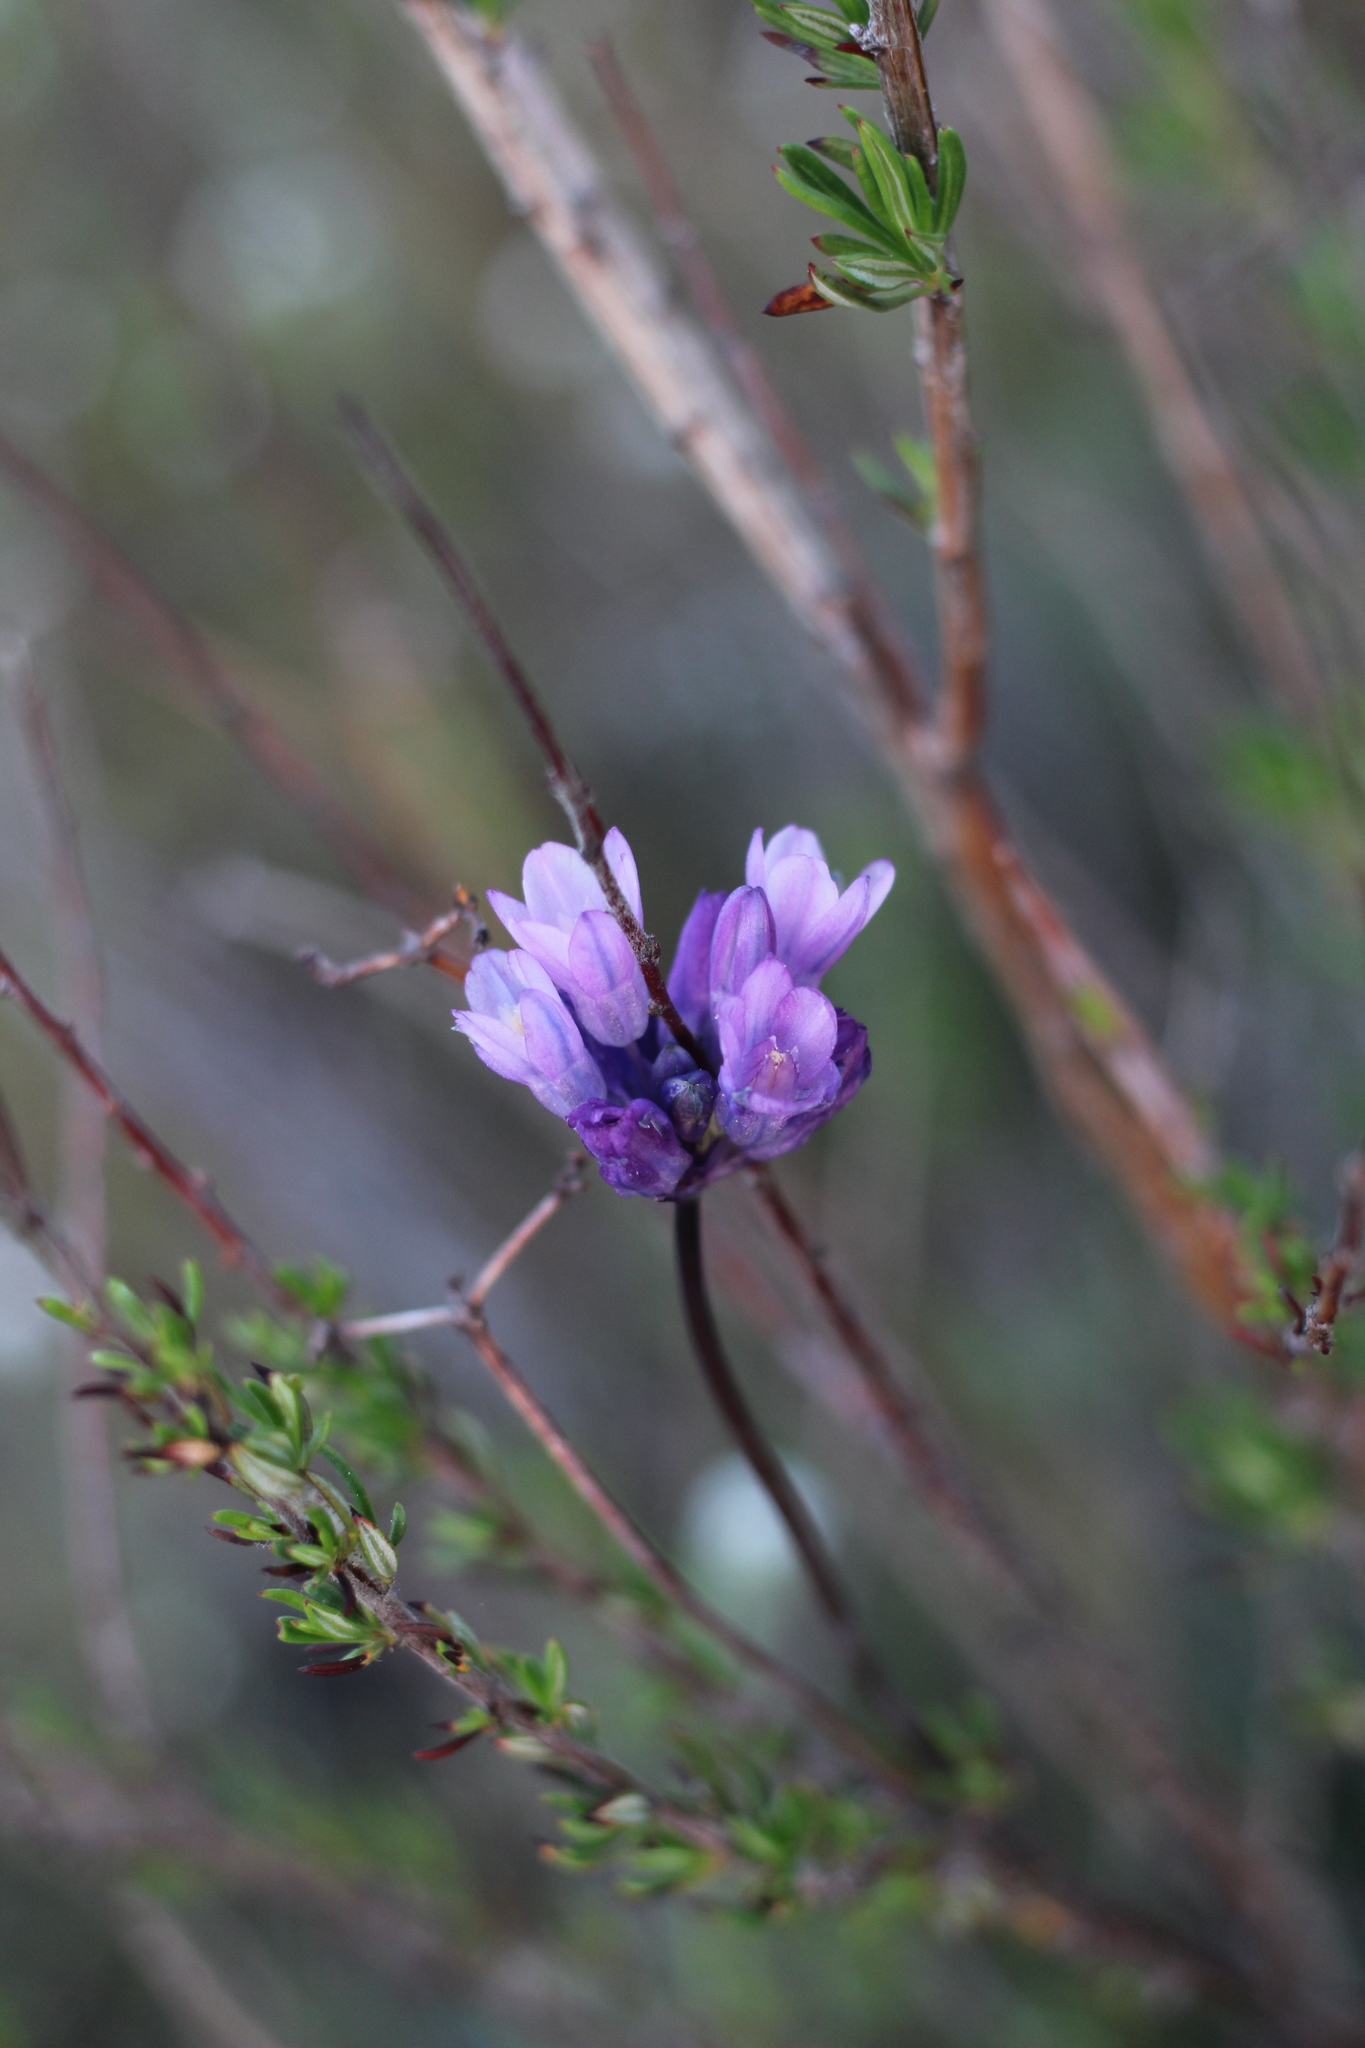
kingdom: Plantae
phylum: Tracheophyta
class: Liliopsida
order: Asparagales
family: Asparagaceae
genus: Dipterostemon
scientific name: Dipterostemon capitatus
